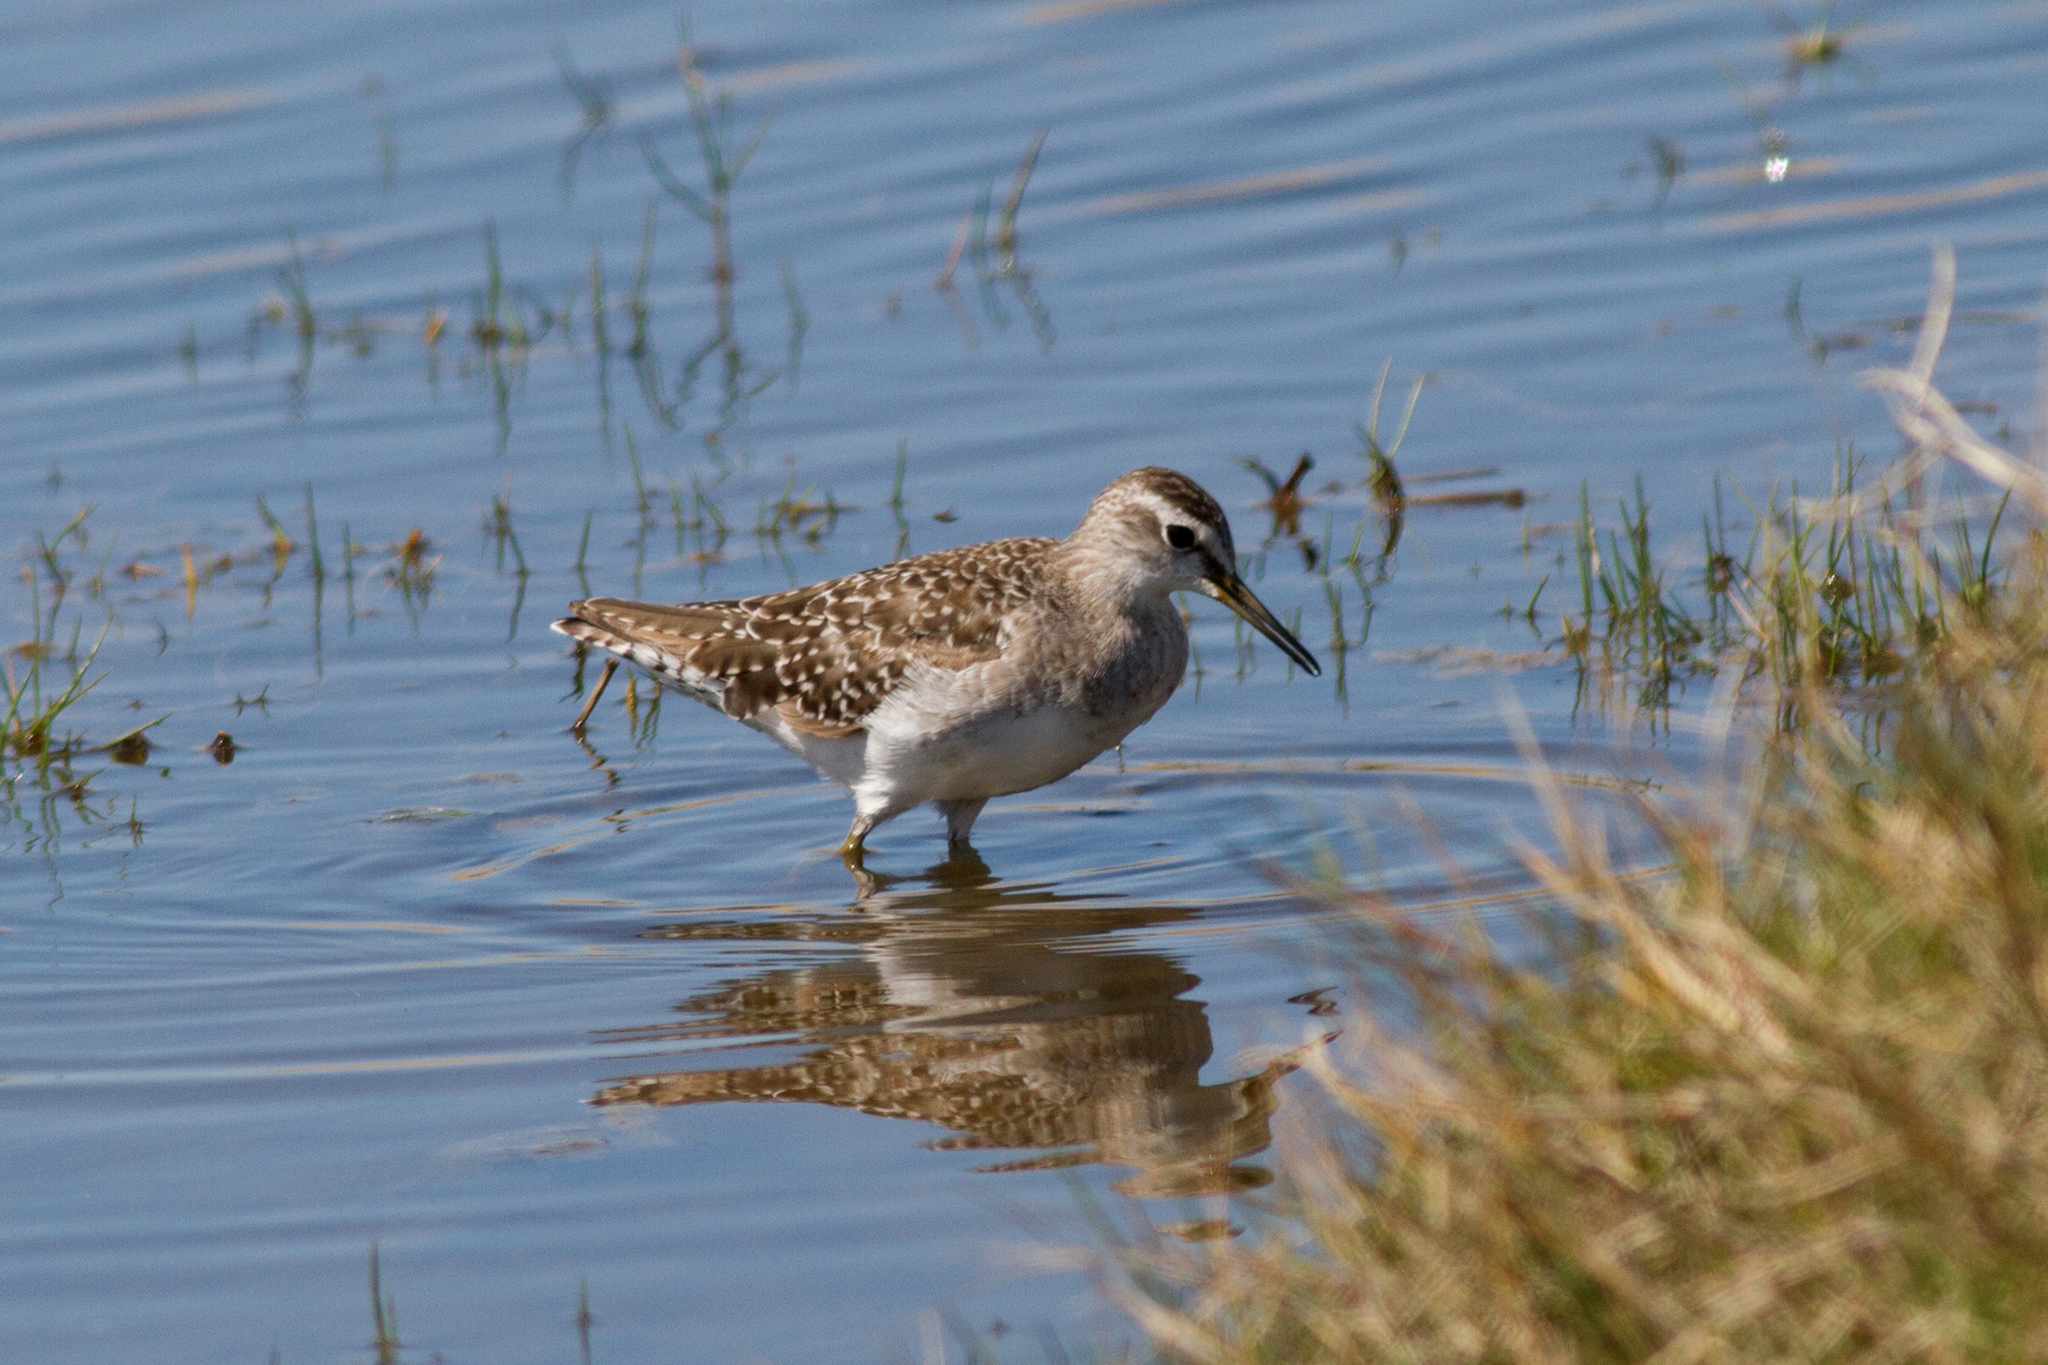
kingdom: Animalia
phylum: Chordata
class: Aves
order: Charadriiformes
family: Scolopacidae
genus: Tringa
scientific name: Tringa glareola
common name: Wood sandpiper
